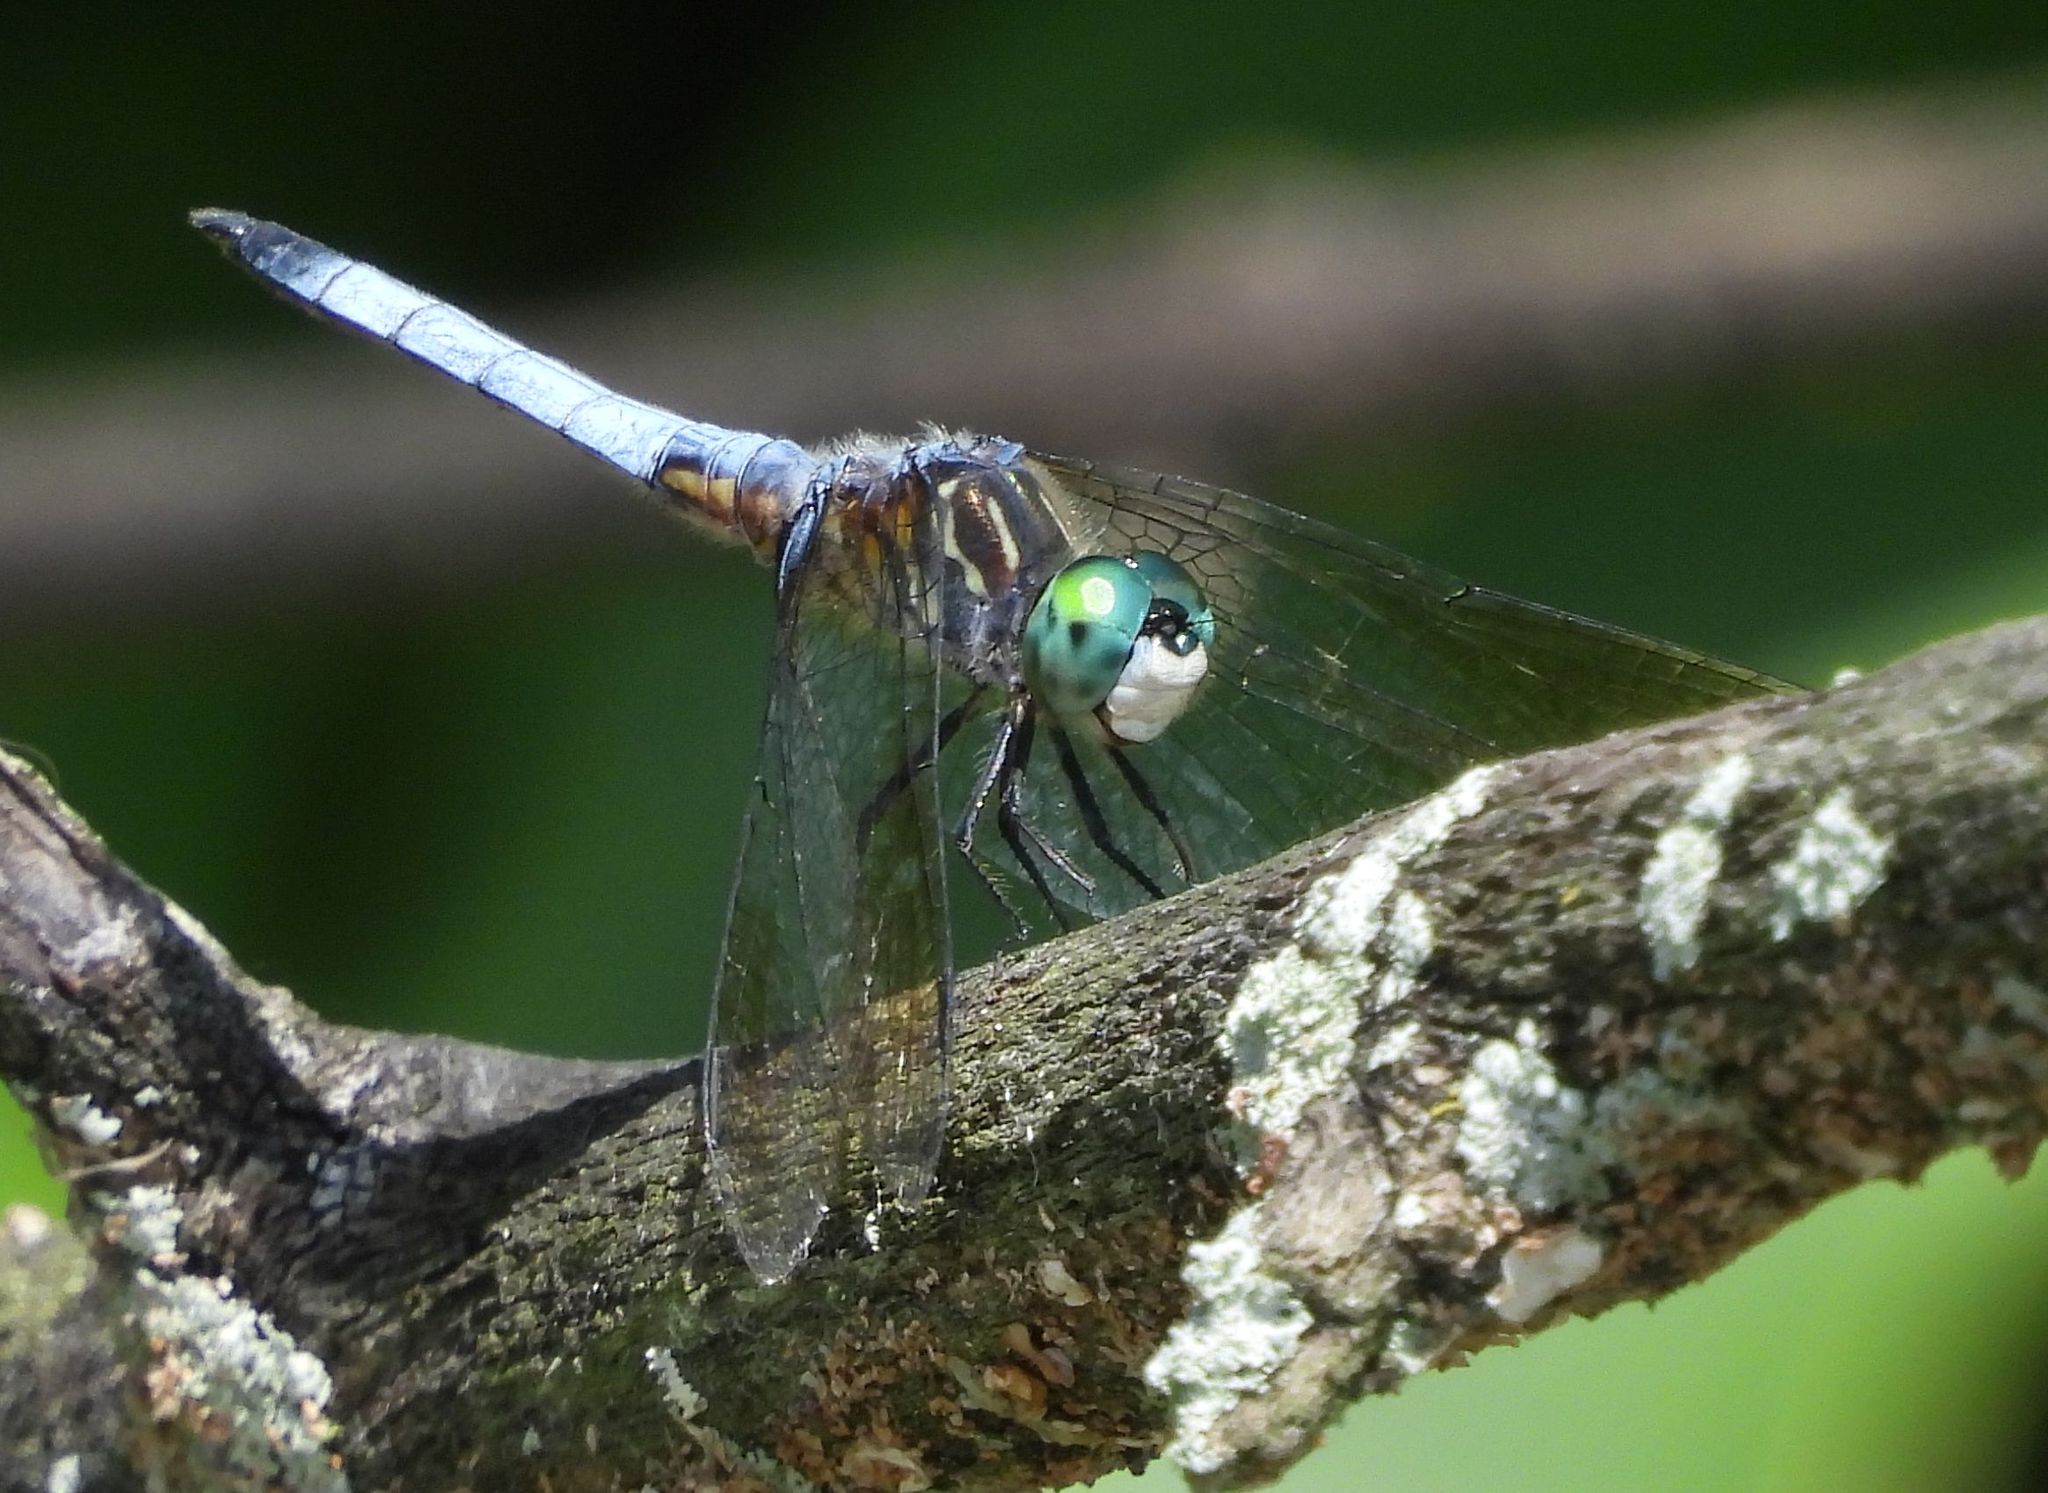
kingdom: Animalia
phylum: Arthropoda
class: Insecta
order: Odonata
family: Libellulidae
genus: Pachydiplax
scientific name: Pachydiplax longipennis
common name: Blue dasher
